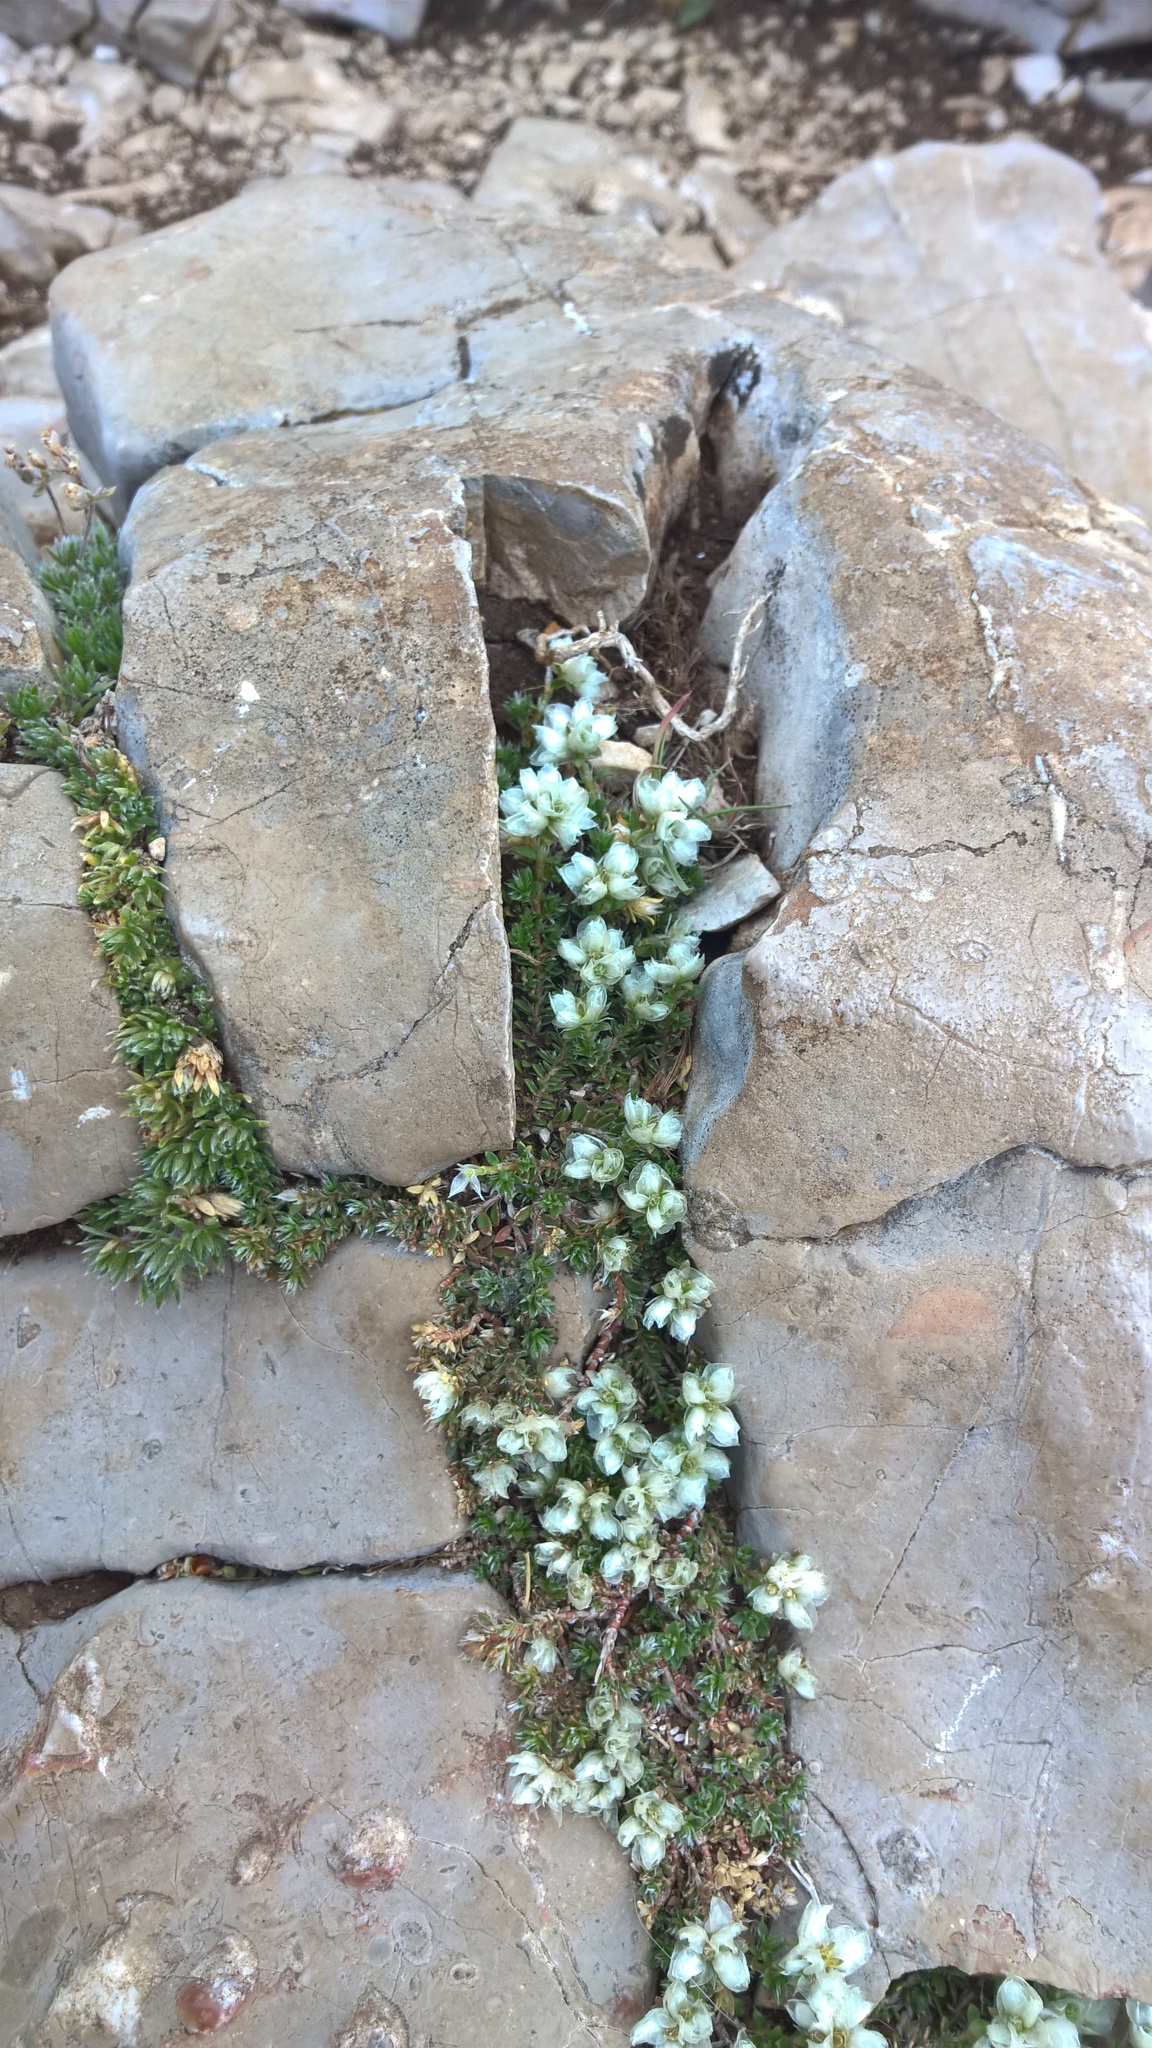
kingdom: Plantae
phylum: Tracheophyta
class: Magnoliopsida
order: Caryophyllales
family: Caryophyllaceae
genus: Paronychia
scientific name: Paronychia cephalotes
